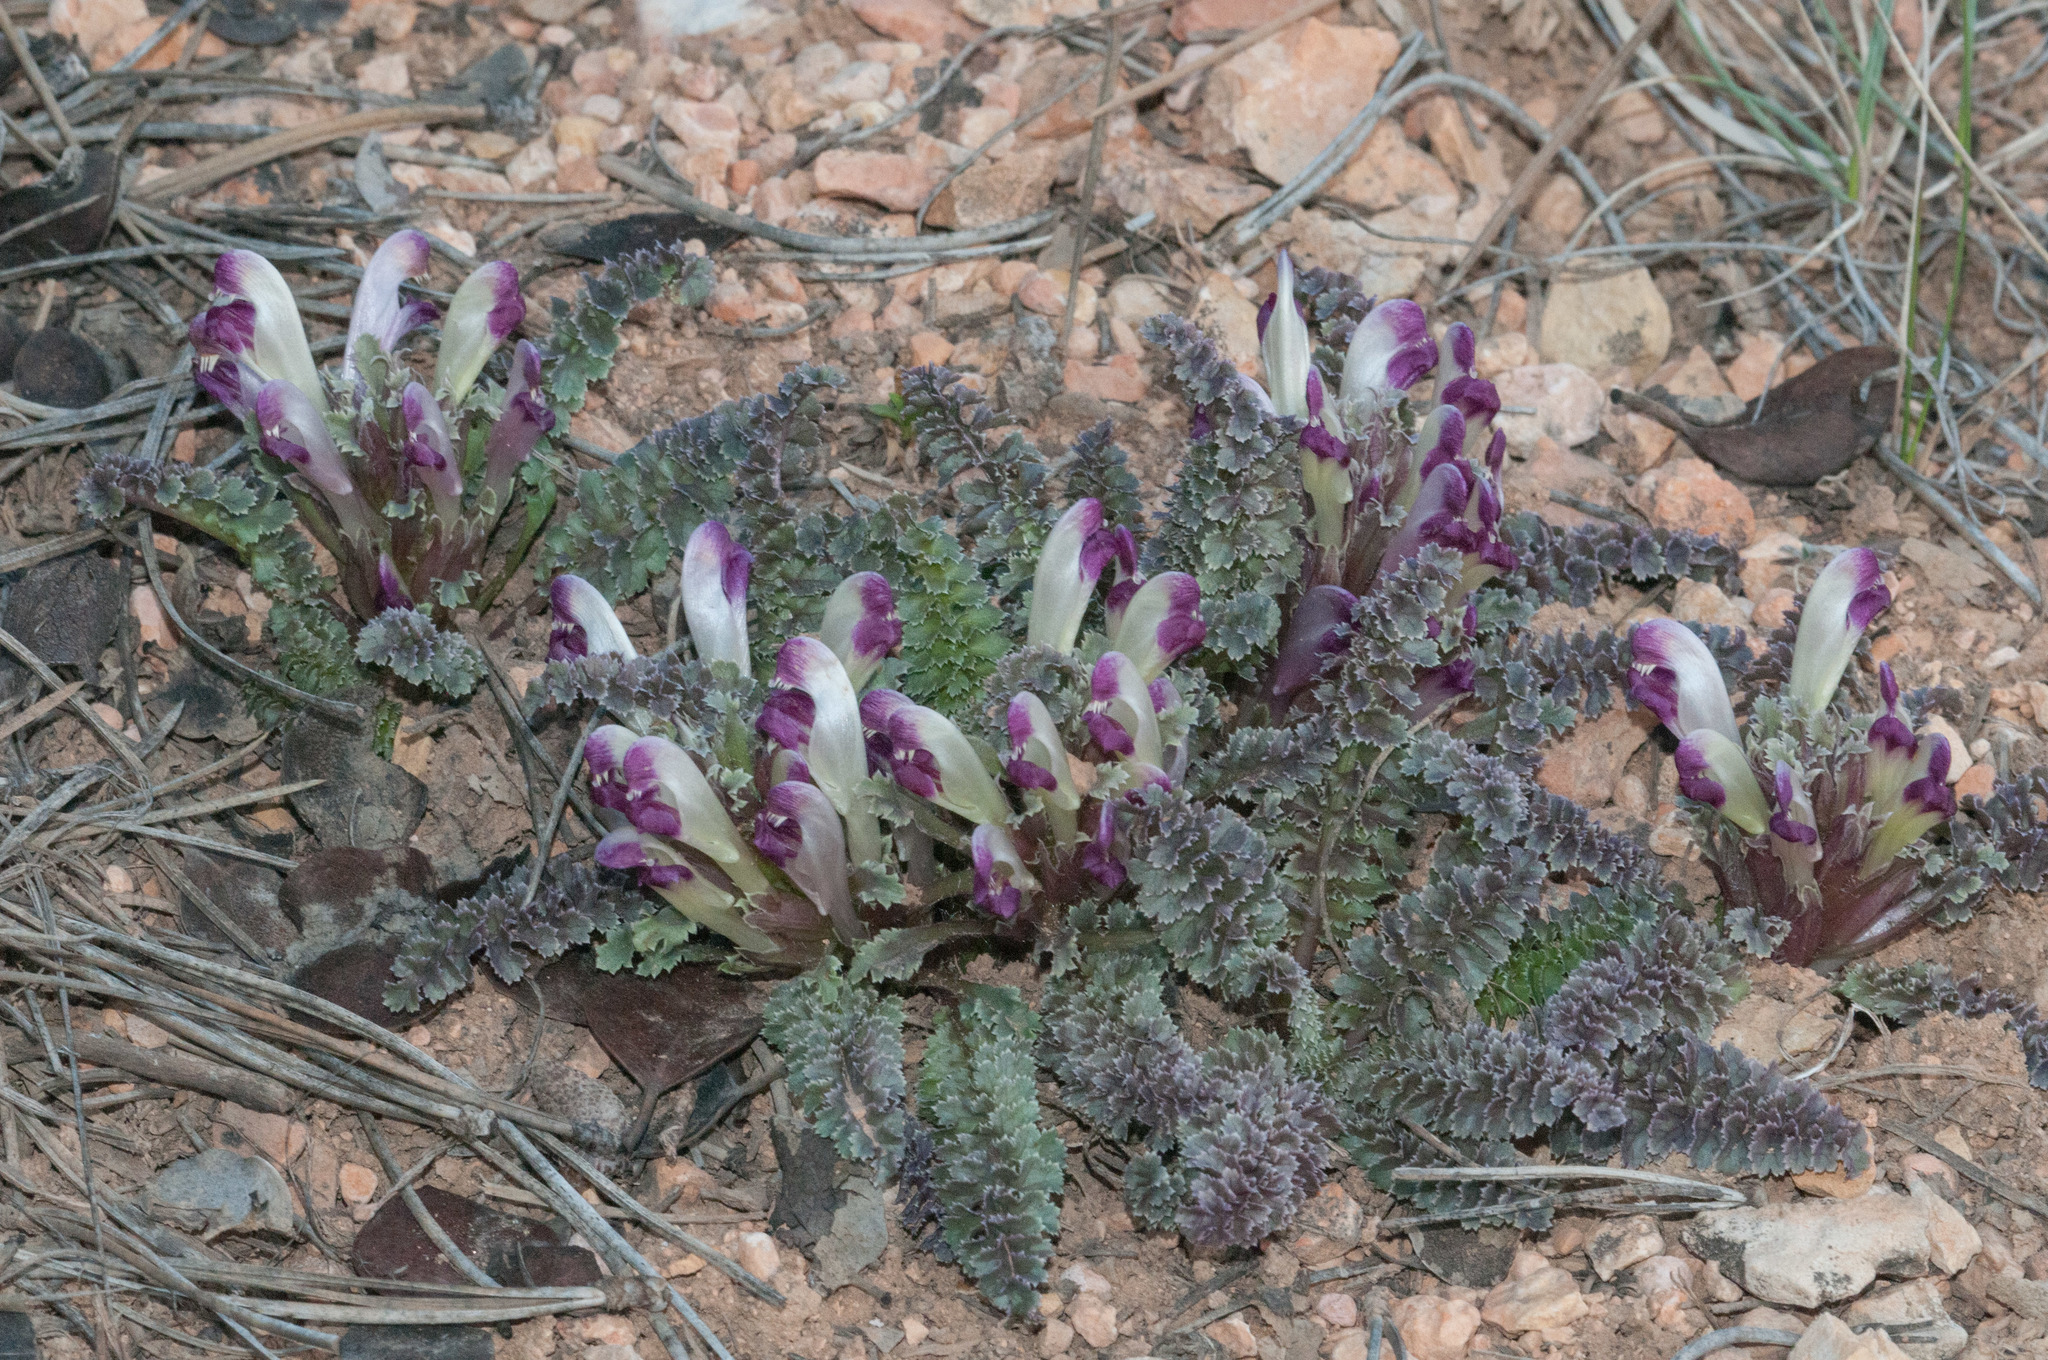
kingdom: Plantae
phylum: Tracheophyta
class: Magnoliopsida
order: Lamiales
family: Orobanchaceae
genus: Pedicularis
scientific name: Pedicularis centranthera
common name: Dwarf lousewort
